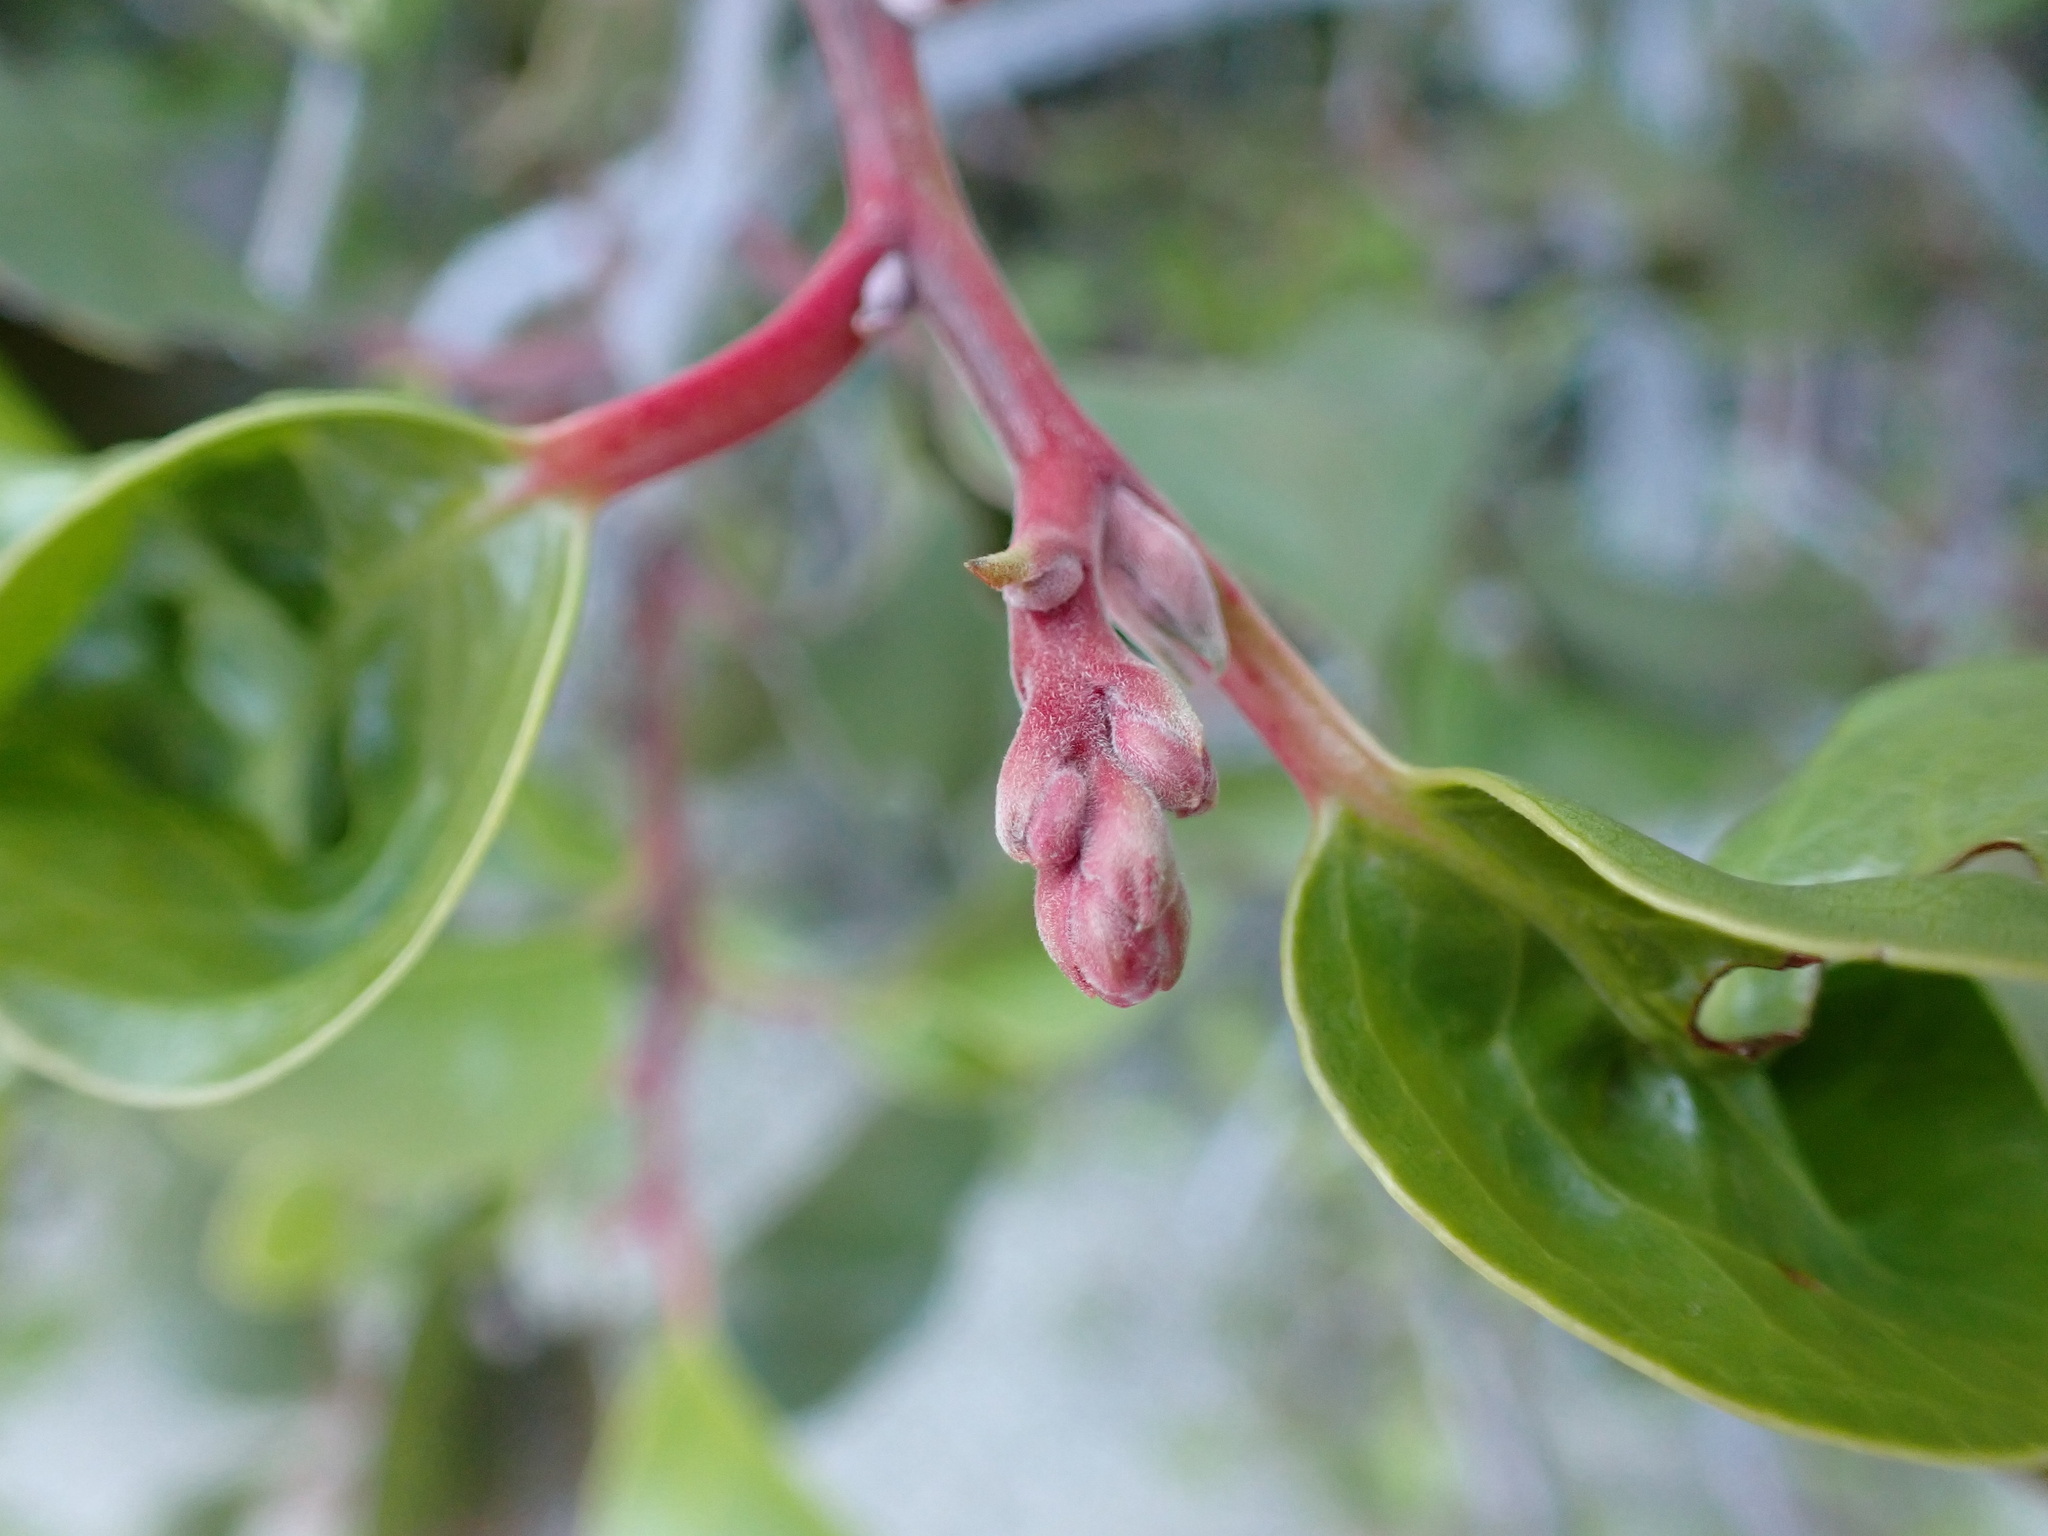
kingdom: Plantae
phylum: Tracheophyta
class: Magnoliopsida
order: Sapindales
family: Anacardiaceae
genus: Rhus
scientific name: Rhus ovata
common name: Sugar sumac
